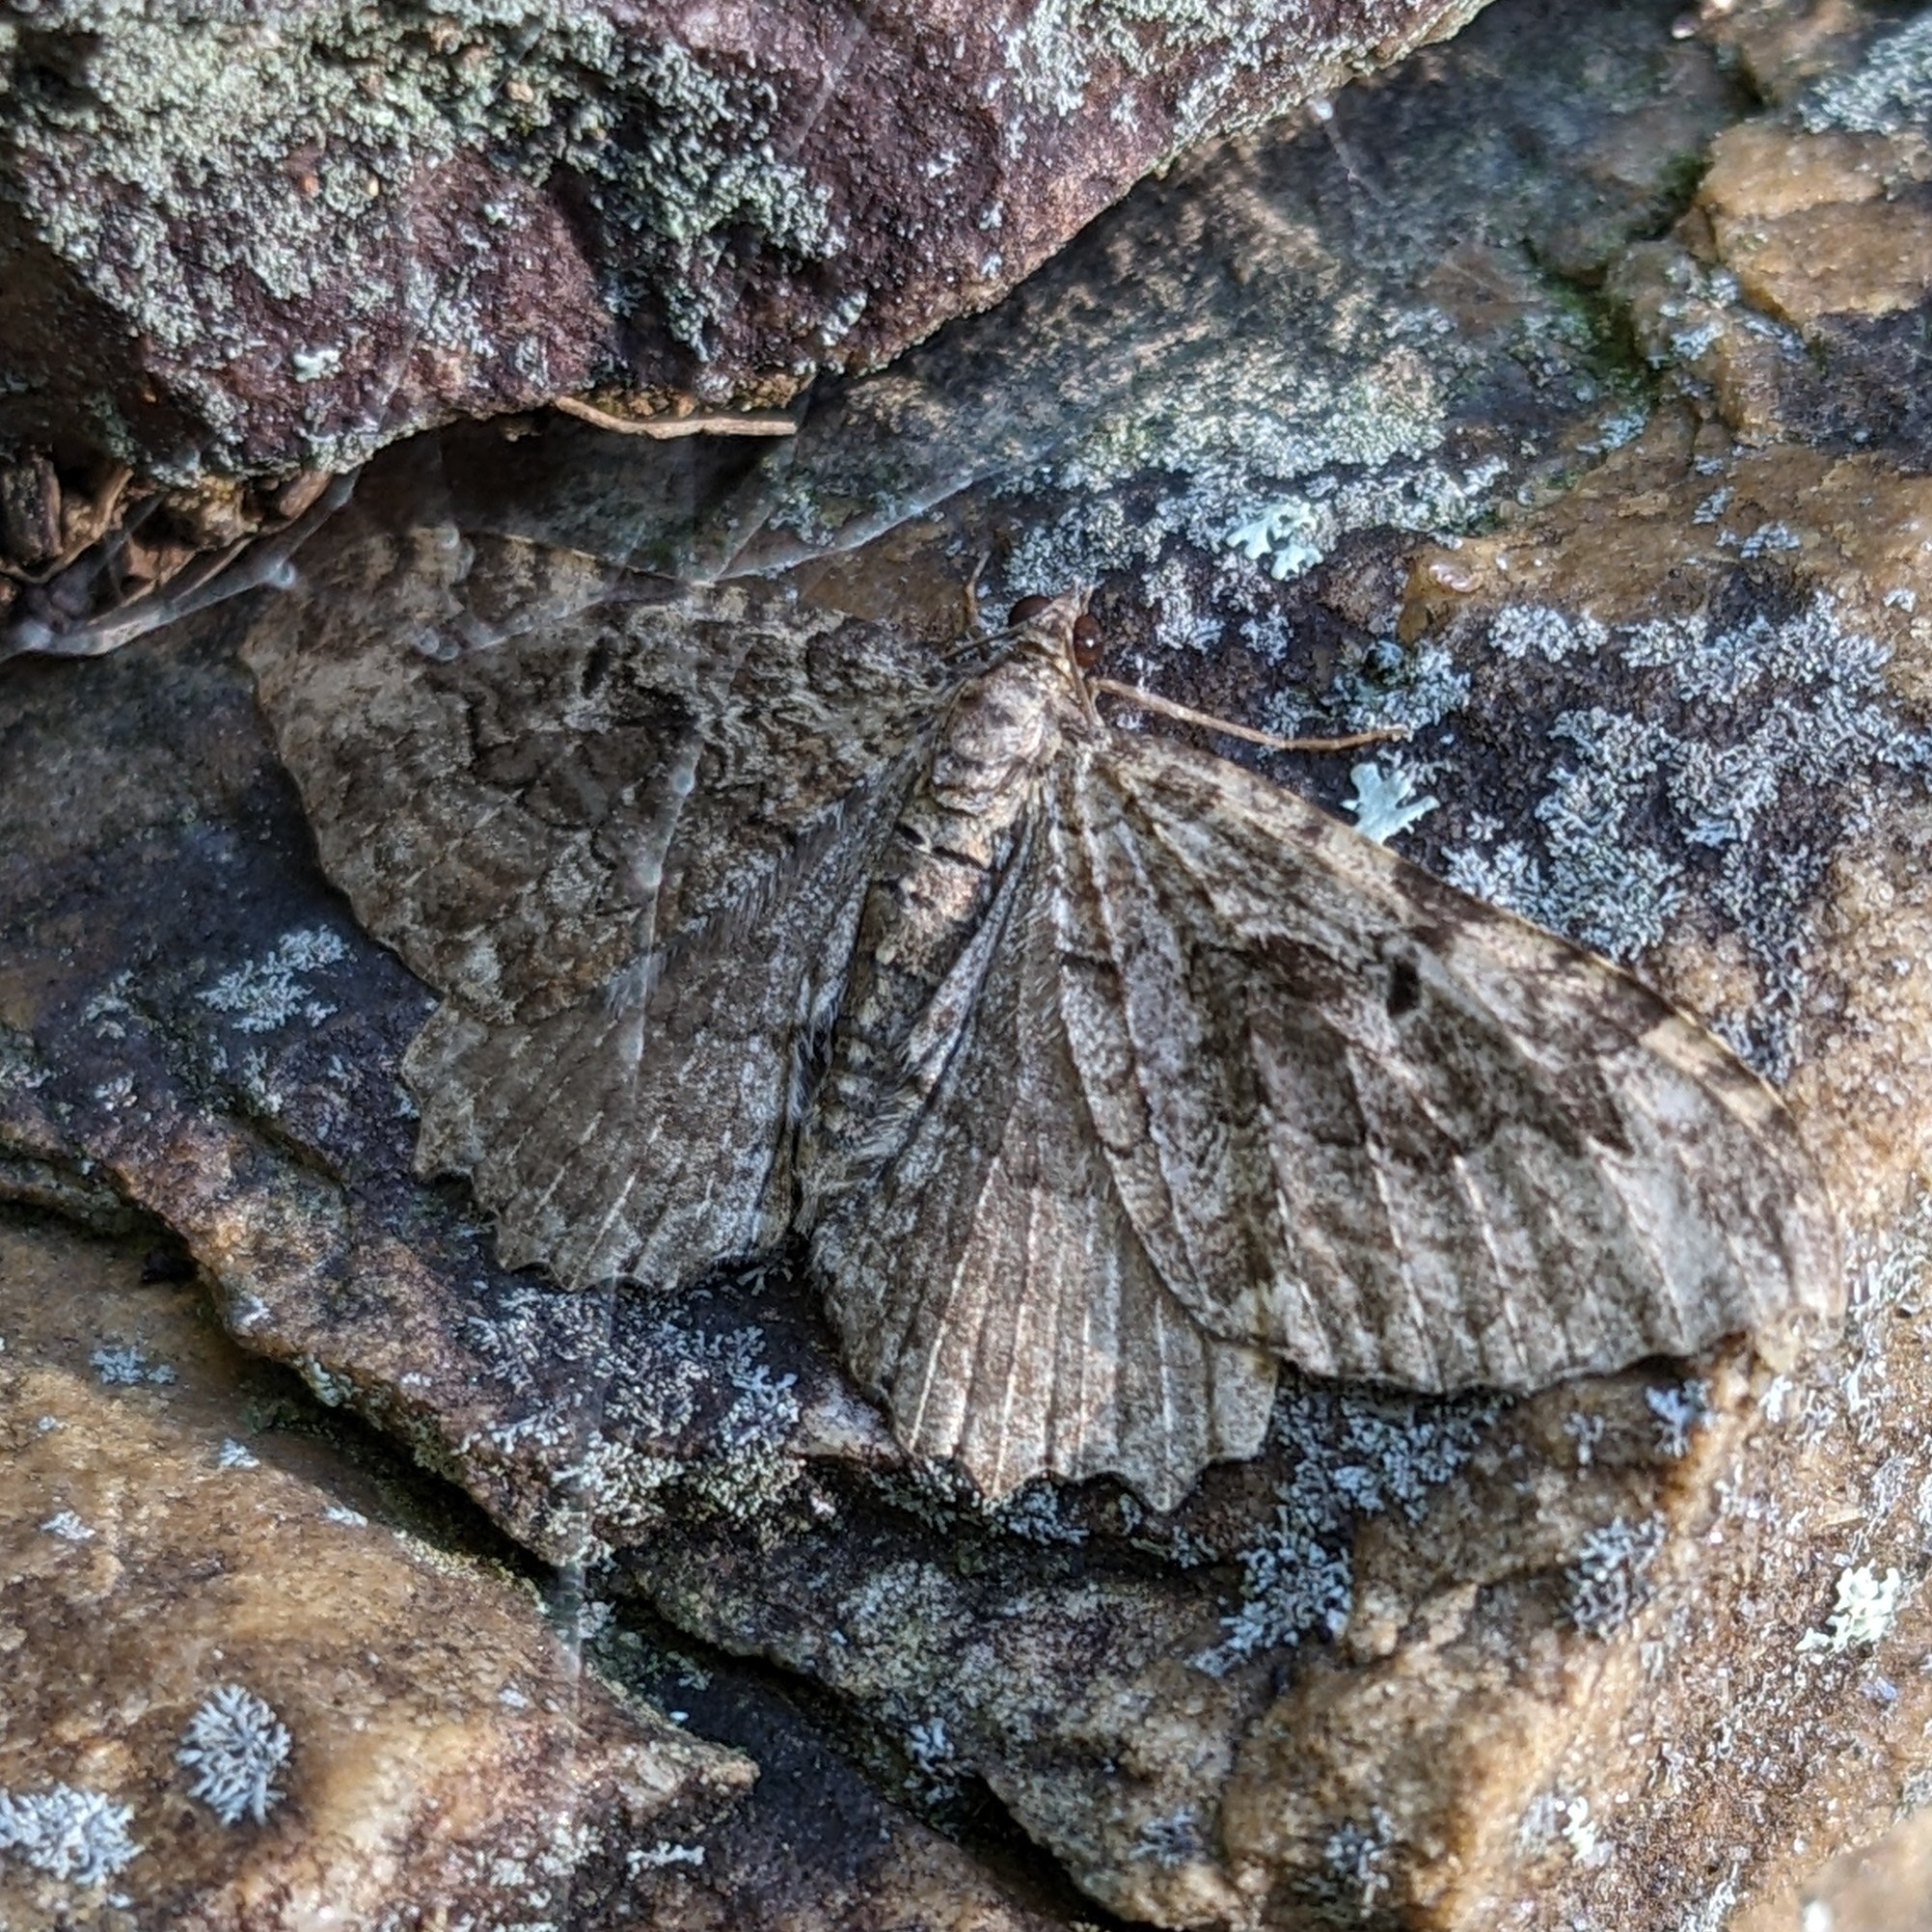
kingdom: Animalia
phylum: Arthropoda
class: Insecta
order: Lepidoptera
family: Geometridae
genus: Rheumaptera
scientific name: Rheumaptera
